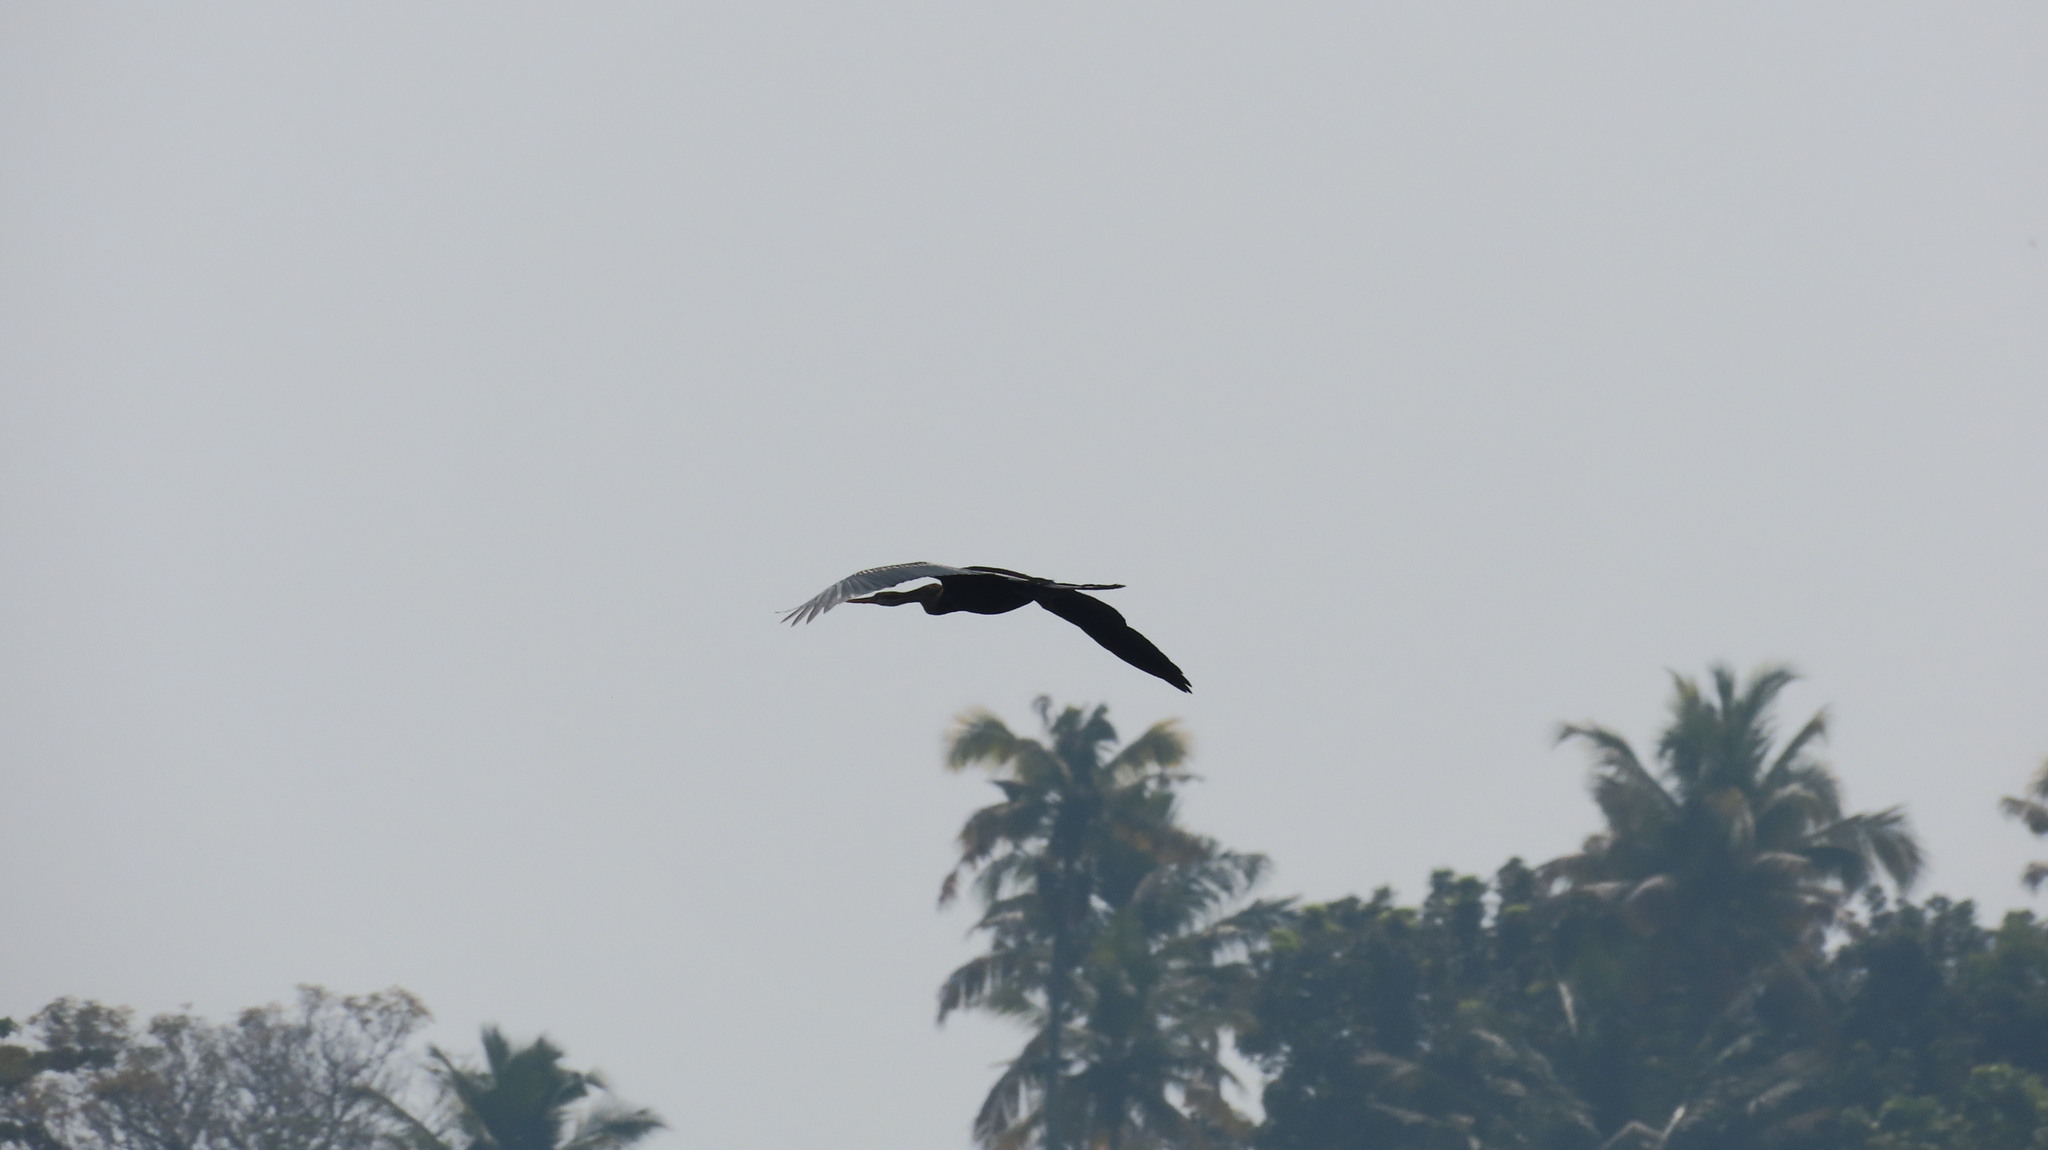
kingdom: Animalia
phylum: Chordata
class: Aves
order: Suliformes
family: Anhingidae
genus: Anhinga
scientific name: Anhinga melanogaster
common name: Oriental darter
